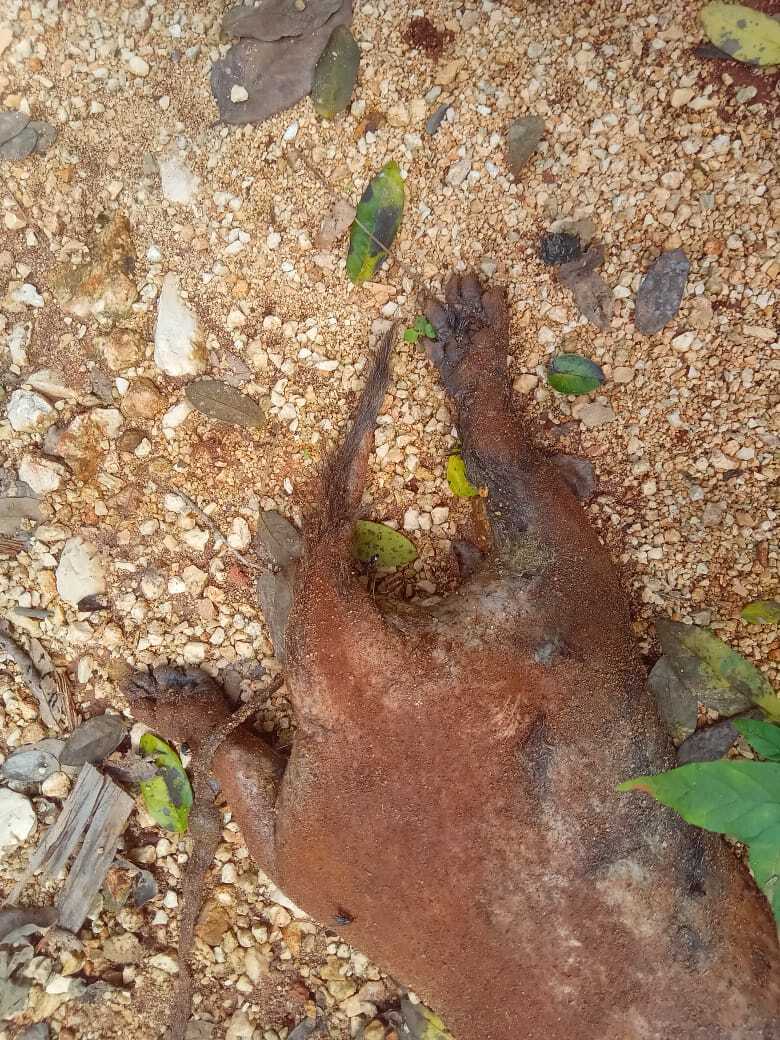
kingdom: Animalia
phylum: Chordata
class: Mammalia
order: Carnivora
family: Mustelidae
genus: Galictis
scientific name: Galictis vittata
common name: Greater grison
